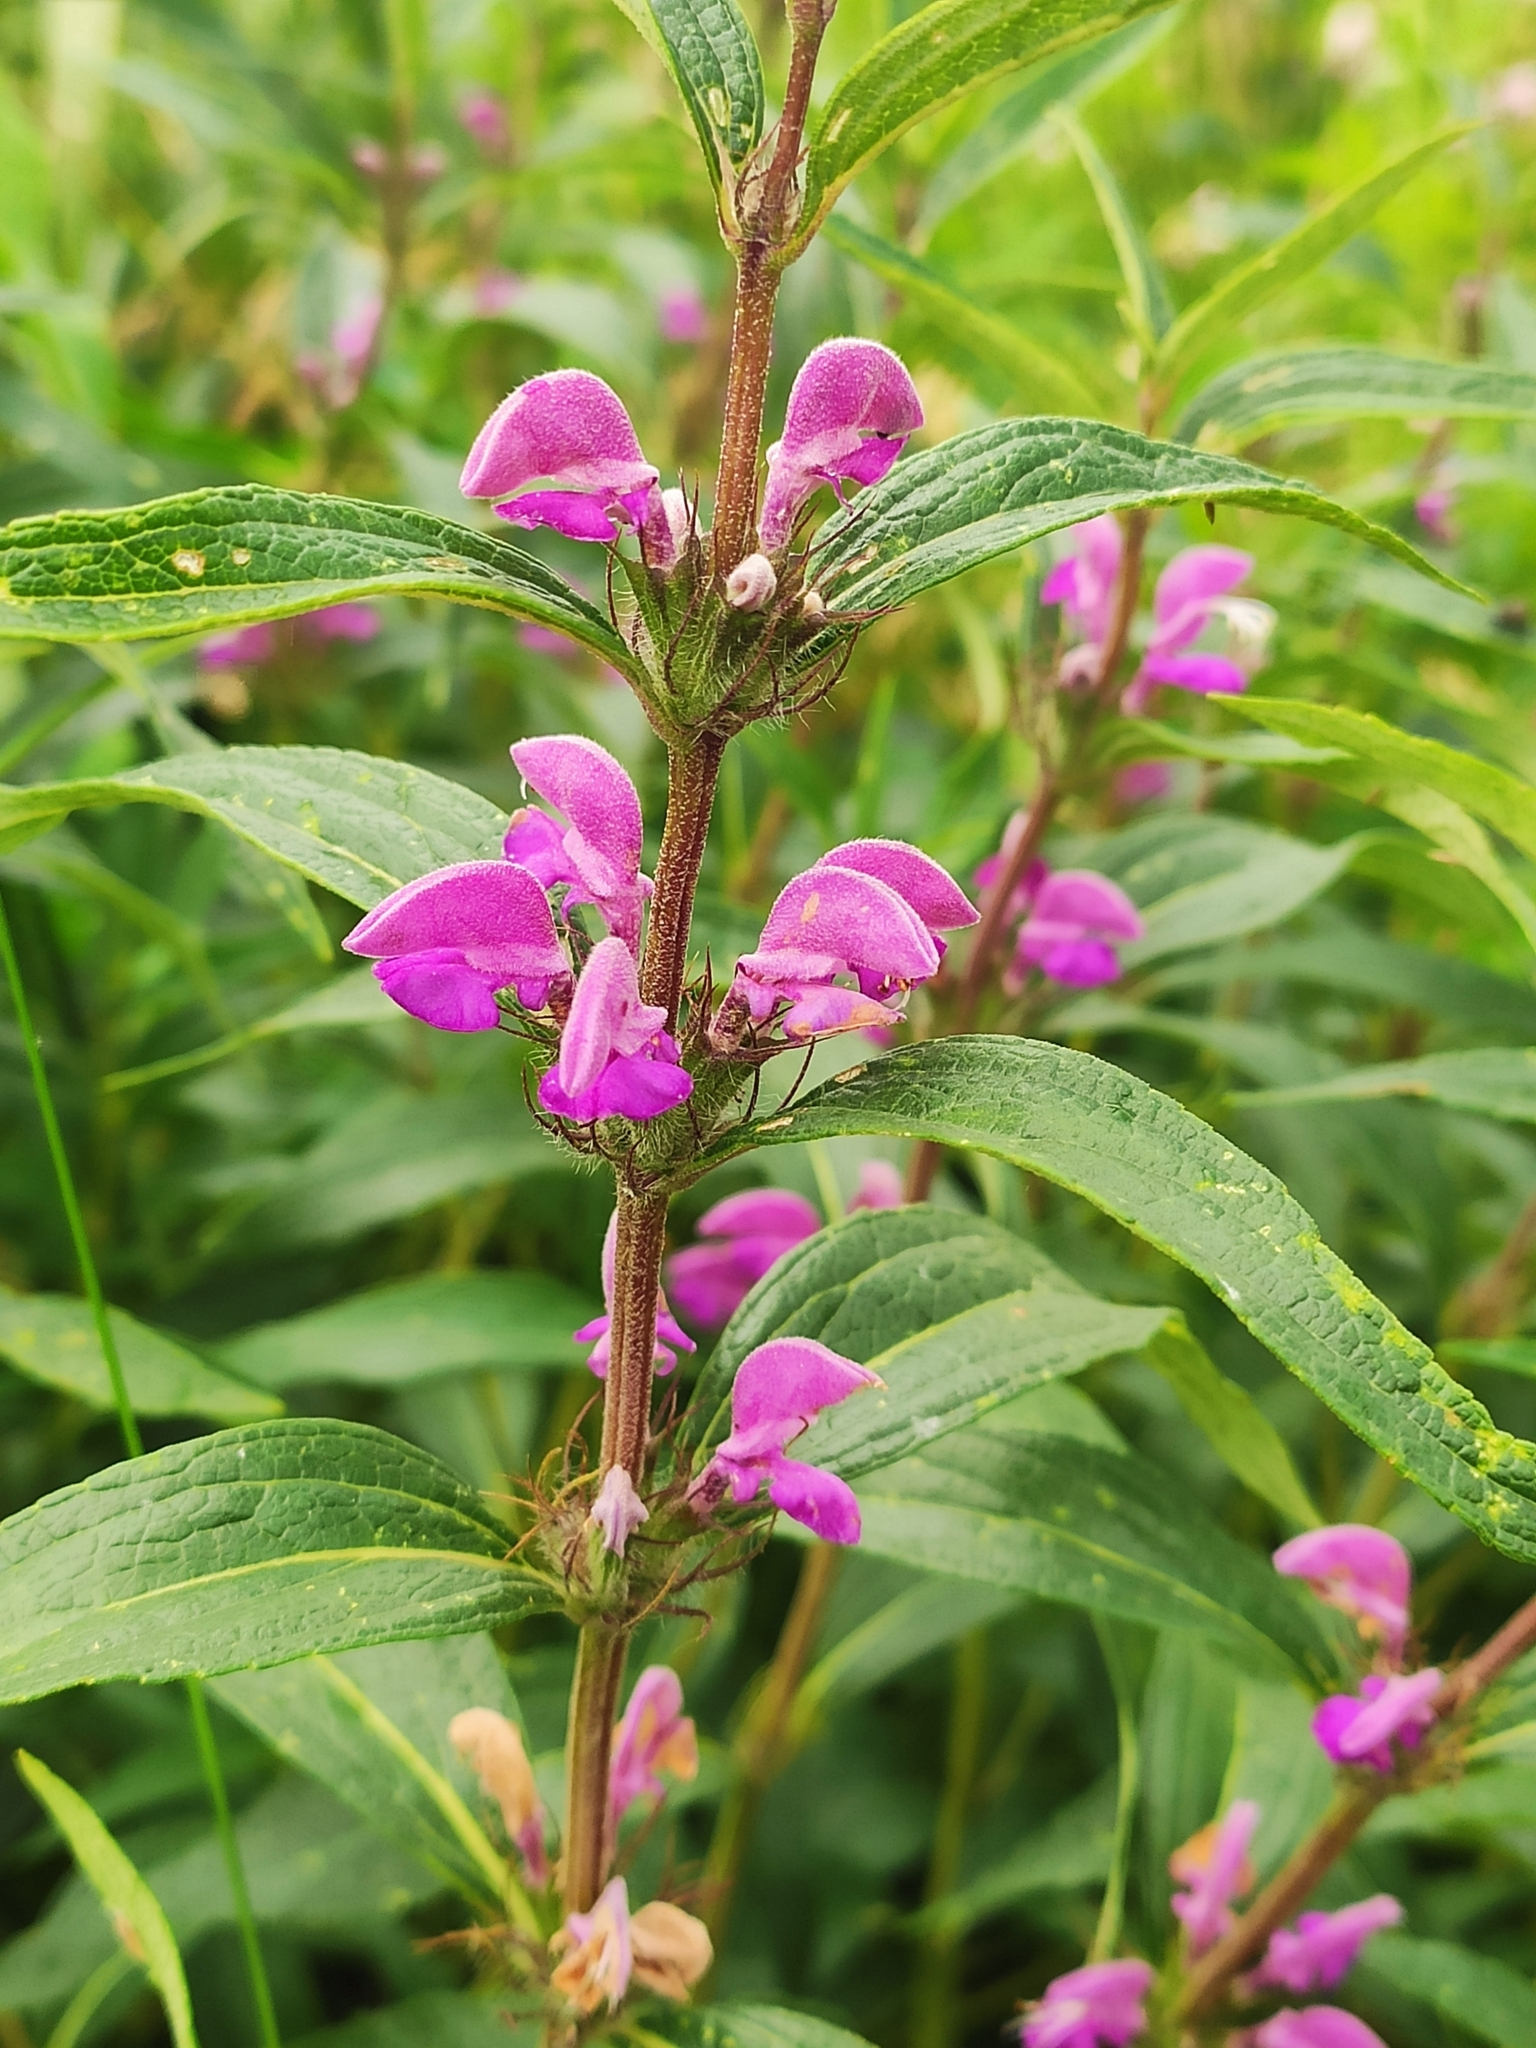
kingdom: Plantae
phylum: Tracheophyta
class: Magnoliopsida
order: Lamiales
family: Lamiaceae
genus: Phlomis
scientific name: Phlomis herba-venti
